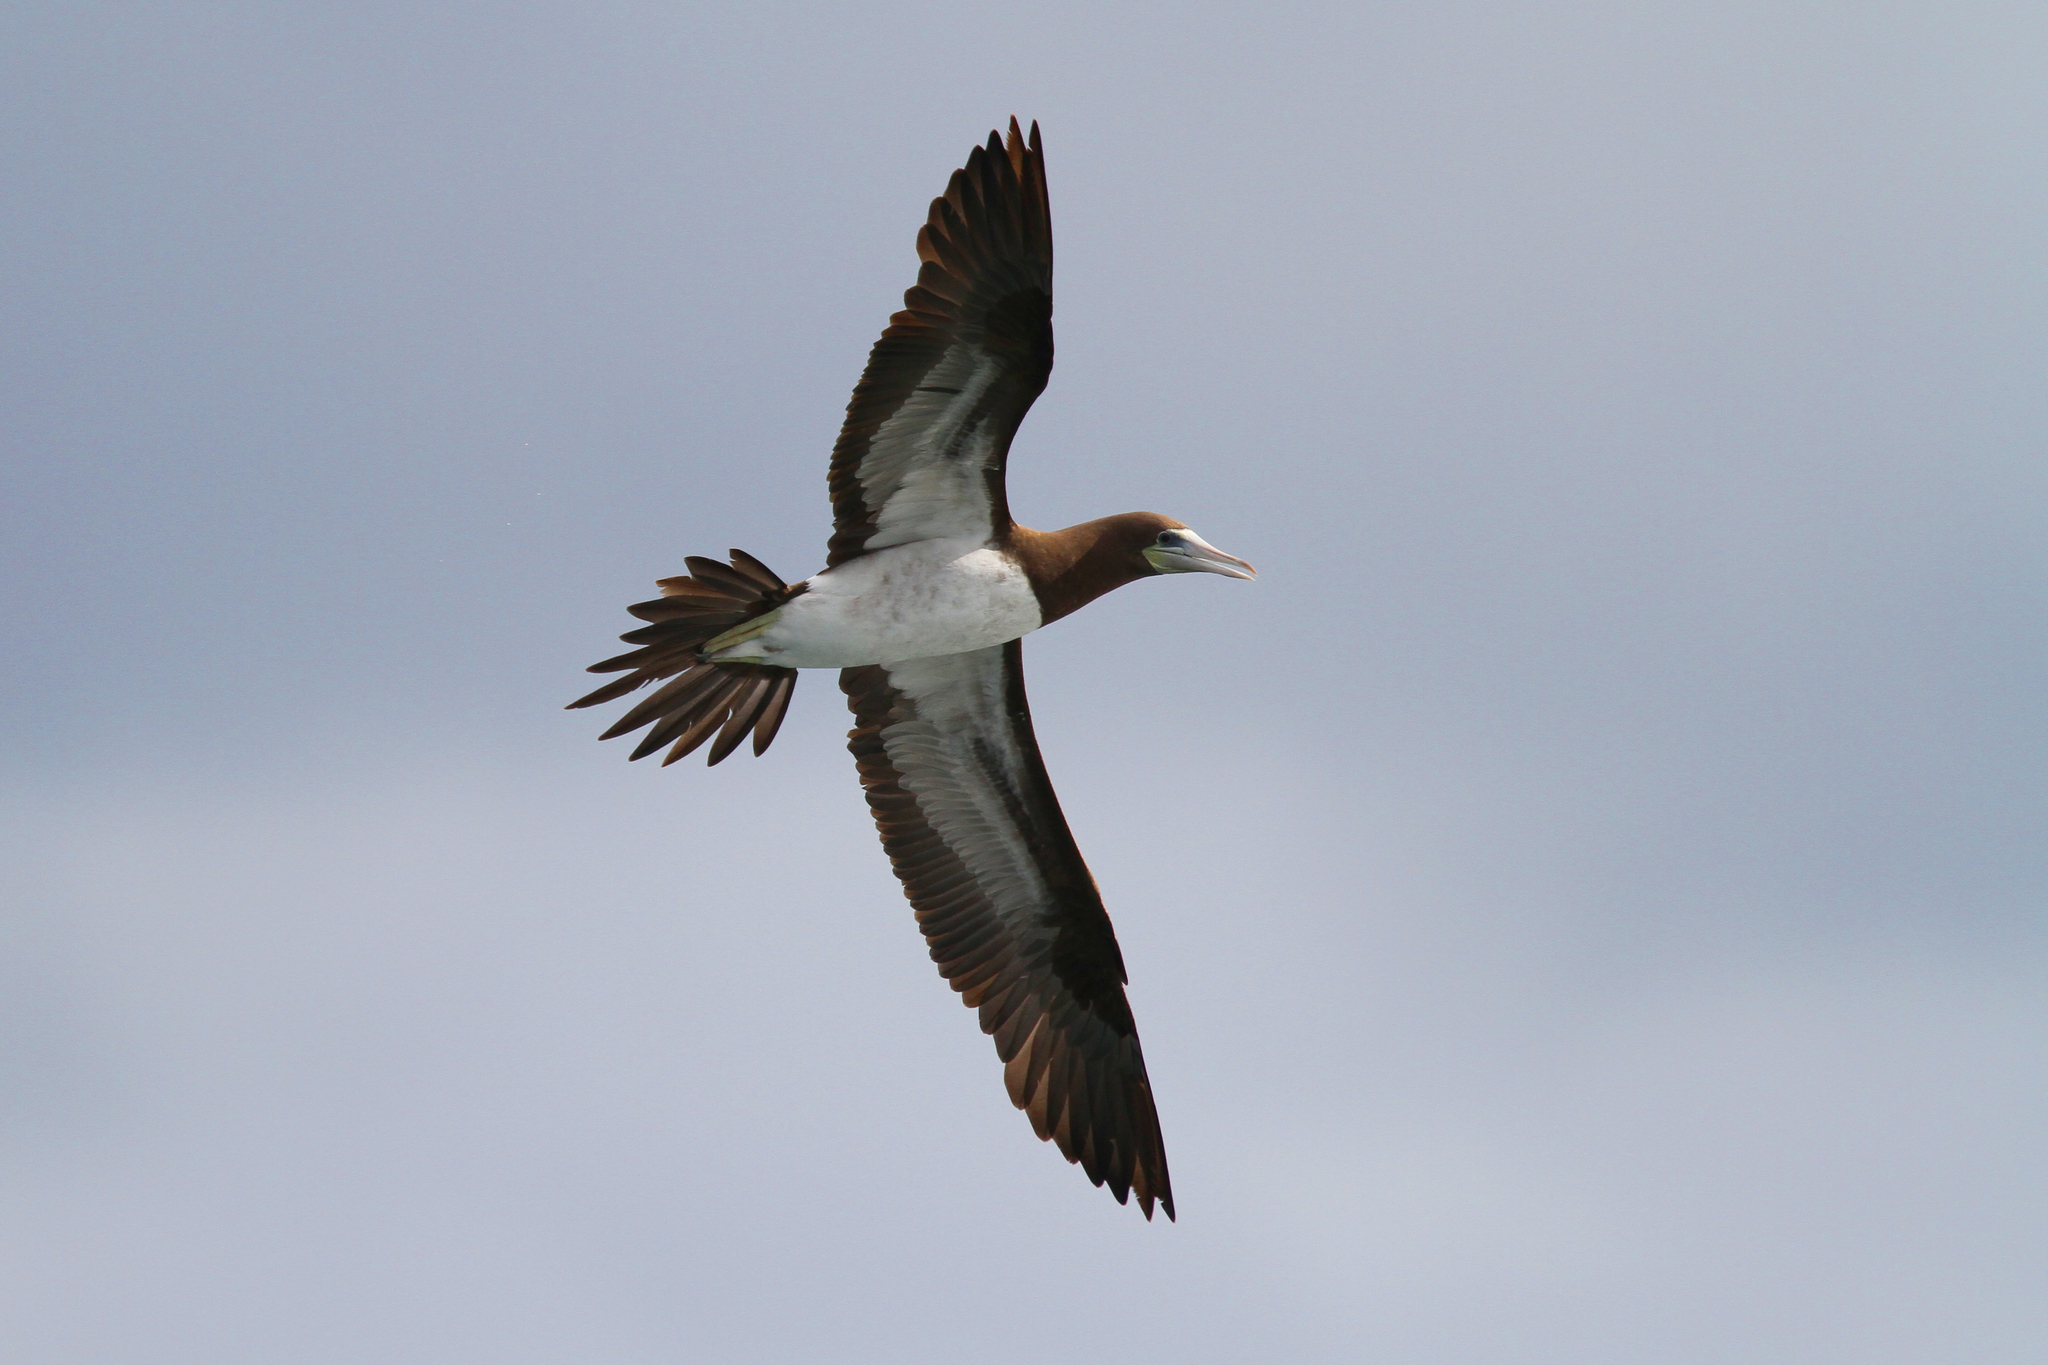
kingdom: Animalia
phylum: Chordata
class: Aves
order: Suliformes
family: Sulidae
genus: Sula
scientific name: Sula leucogaster
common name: Brown booby
